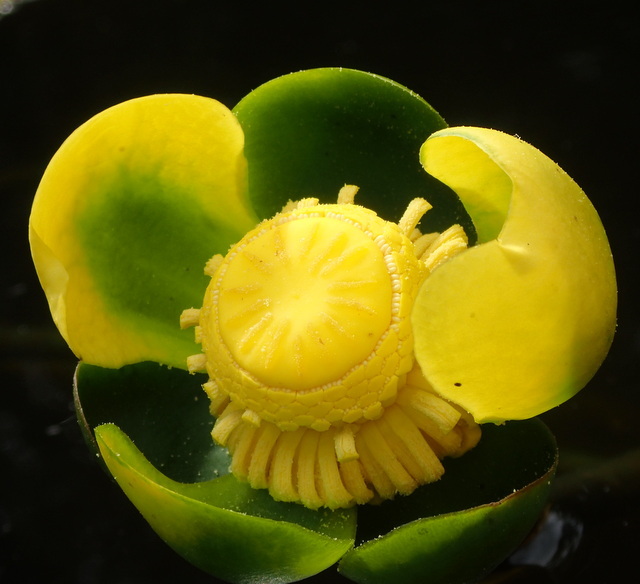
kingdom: Plantae
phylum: Tracheophyta
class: Magnoliopsida
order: Nymphaeales
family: Nymphaeaceae
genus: Nuphar
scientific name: Nuphar advena
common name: Spatter-dock
